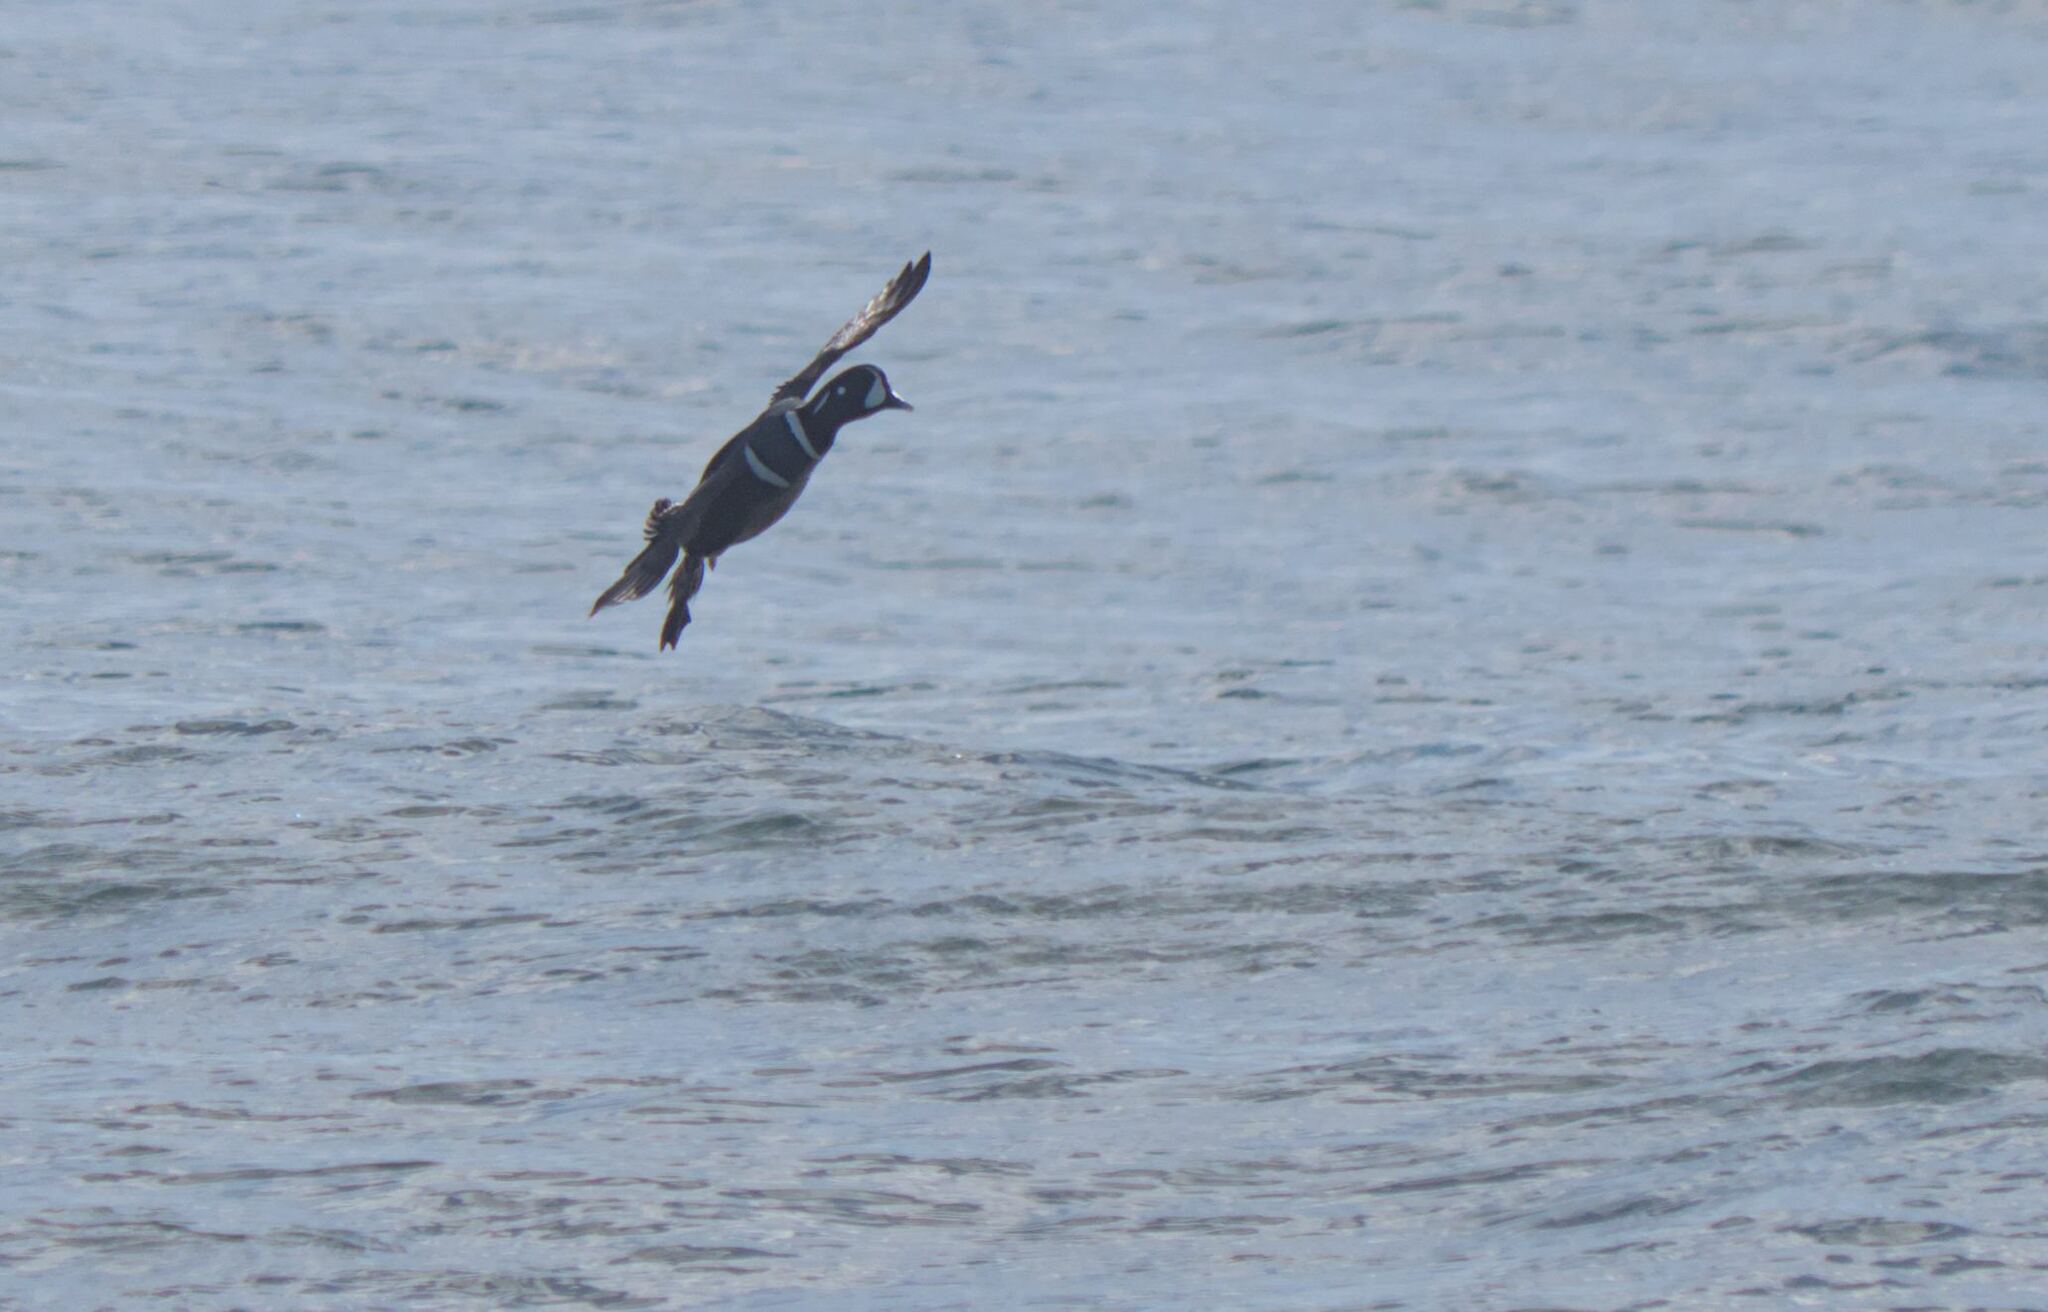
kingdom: Animalia
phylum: Chordata
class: Aves
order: Anseriformes
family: Anatidae
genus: Histrionicus
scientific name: Histrionicus histrionicus
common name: Harlequin duck
